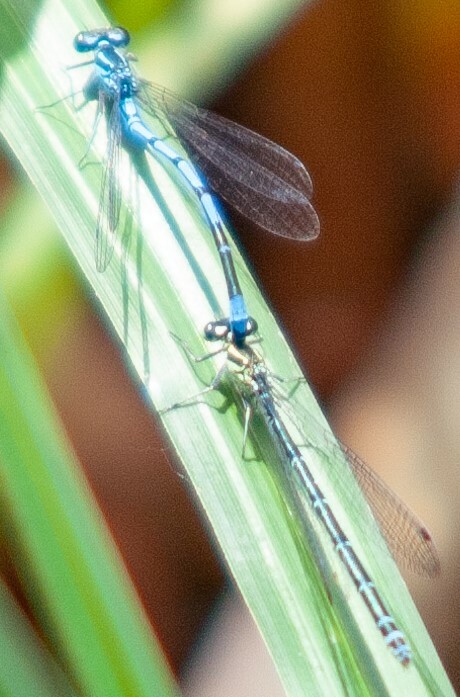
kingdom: Animalia
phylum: Arthropoda
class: Insecta
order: Odonata
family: Coenagrionidae
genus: Ischnura
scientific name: Ischnura elegans
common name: Blue-tailed damselfly
